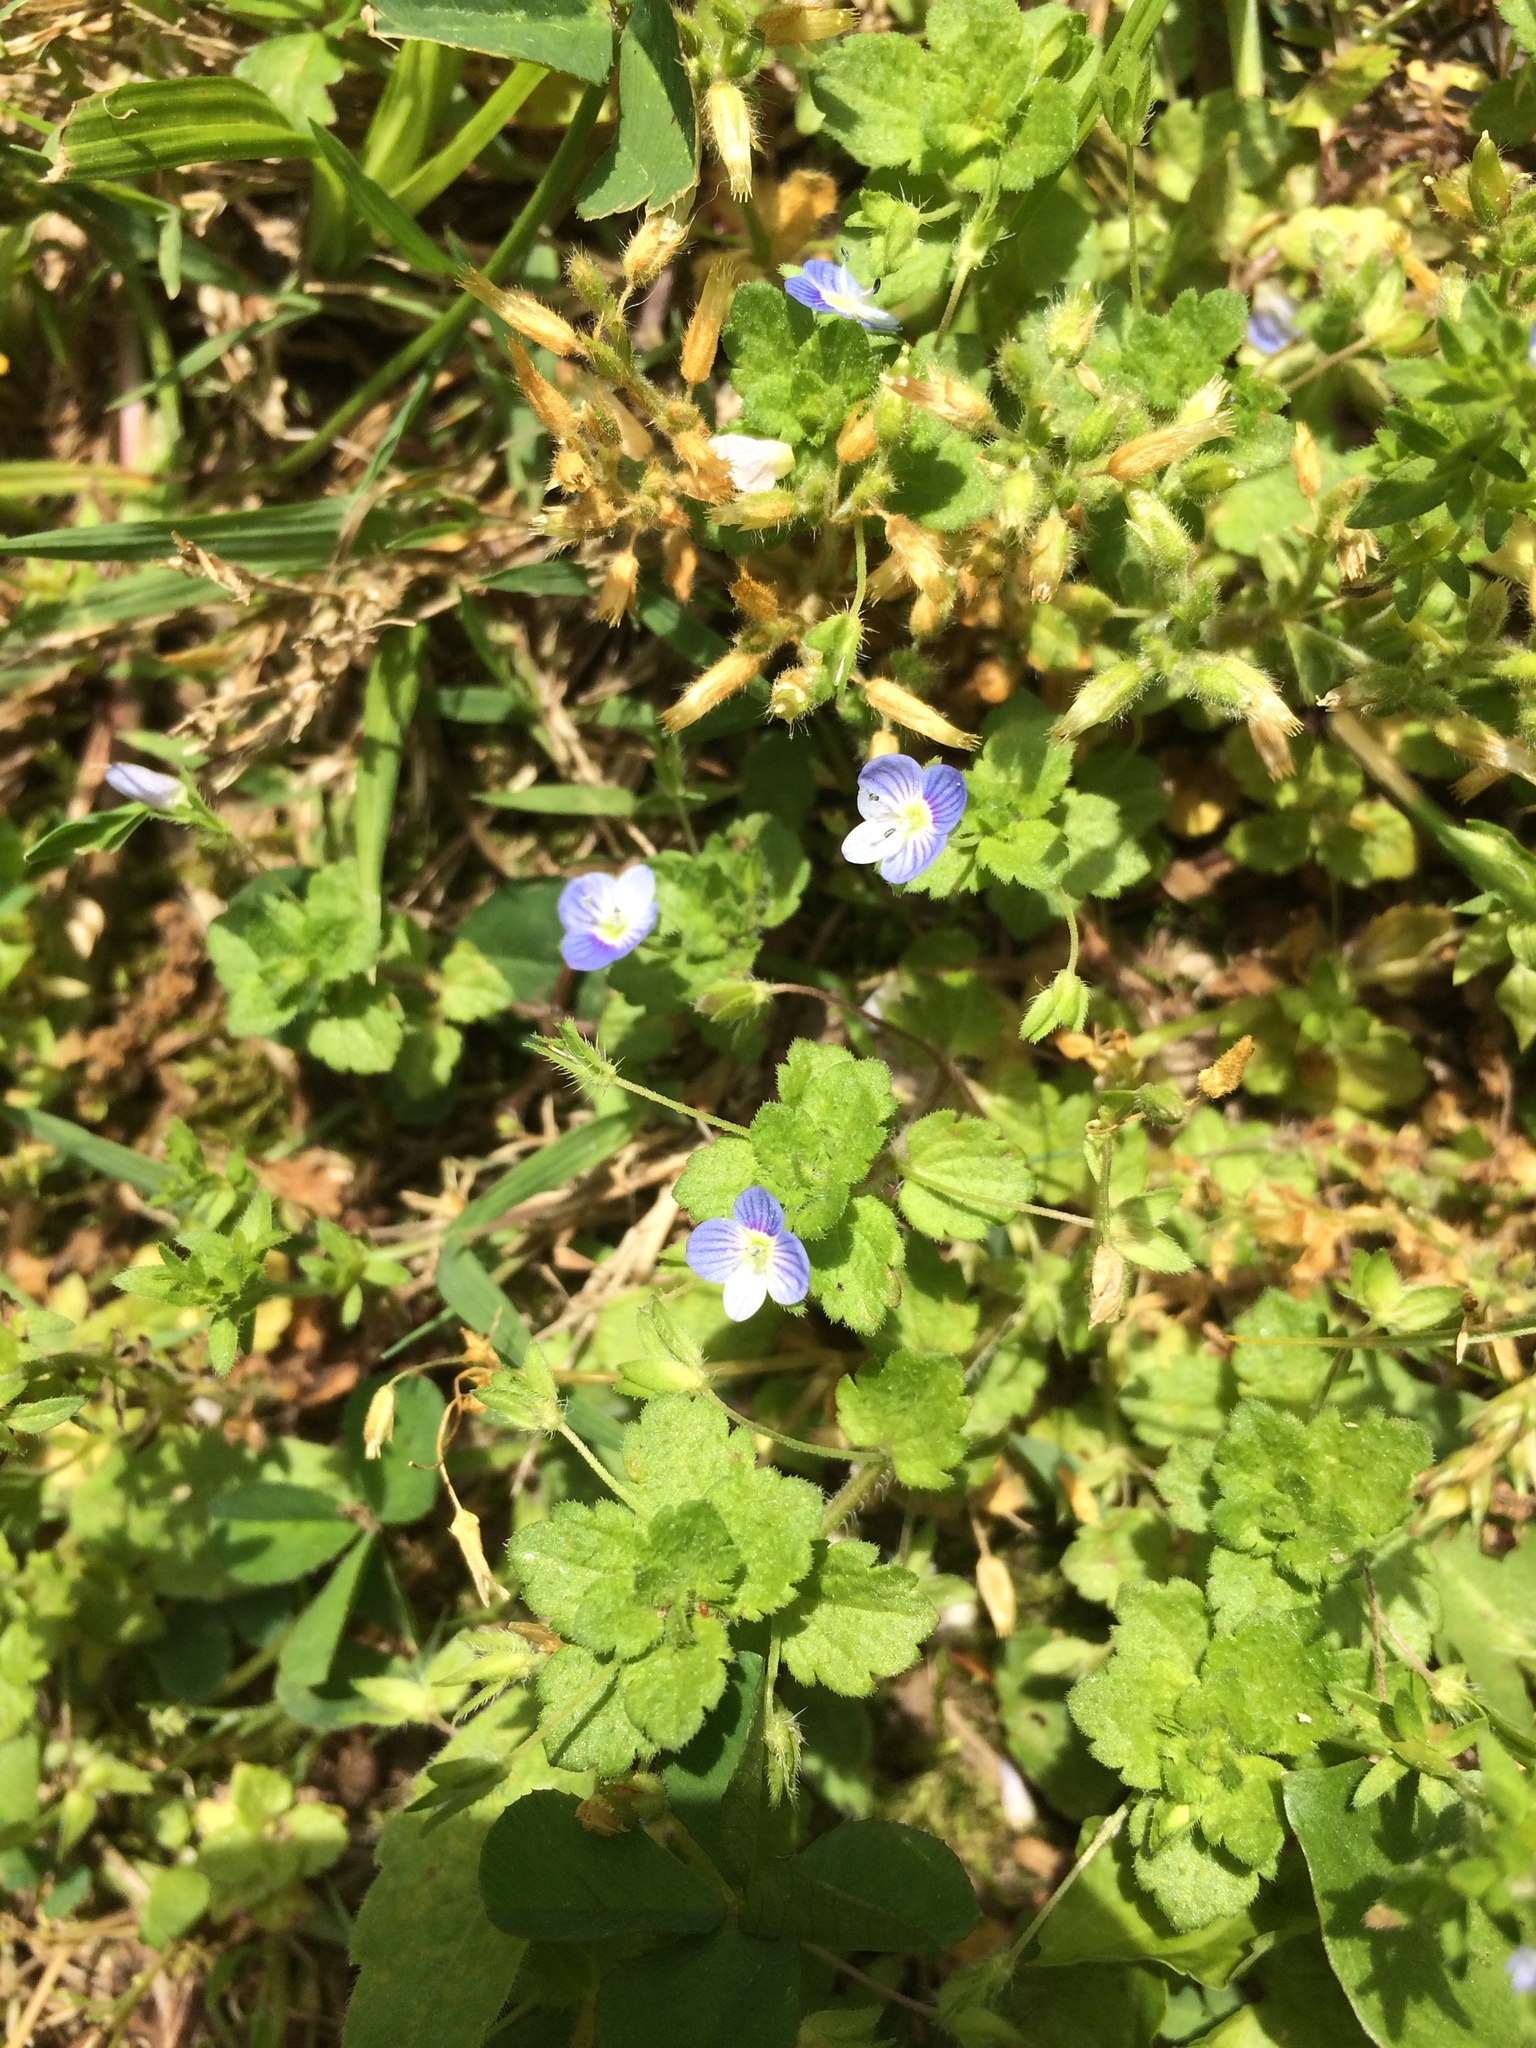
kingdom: Plantae
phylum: Tracheophyta
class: Magnoliopsida
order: Lamiales
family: Plantaginaceae
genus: Veronica
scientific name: Veronica persica
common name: Common field-speedwell
